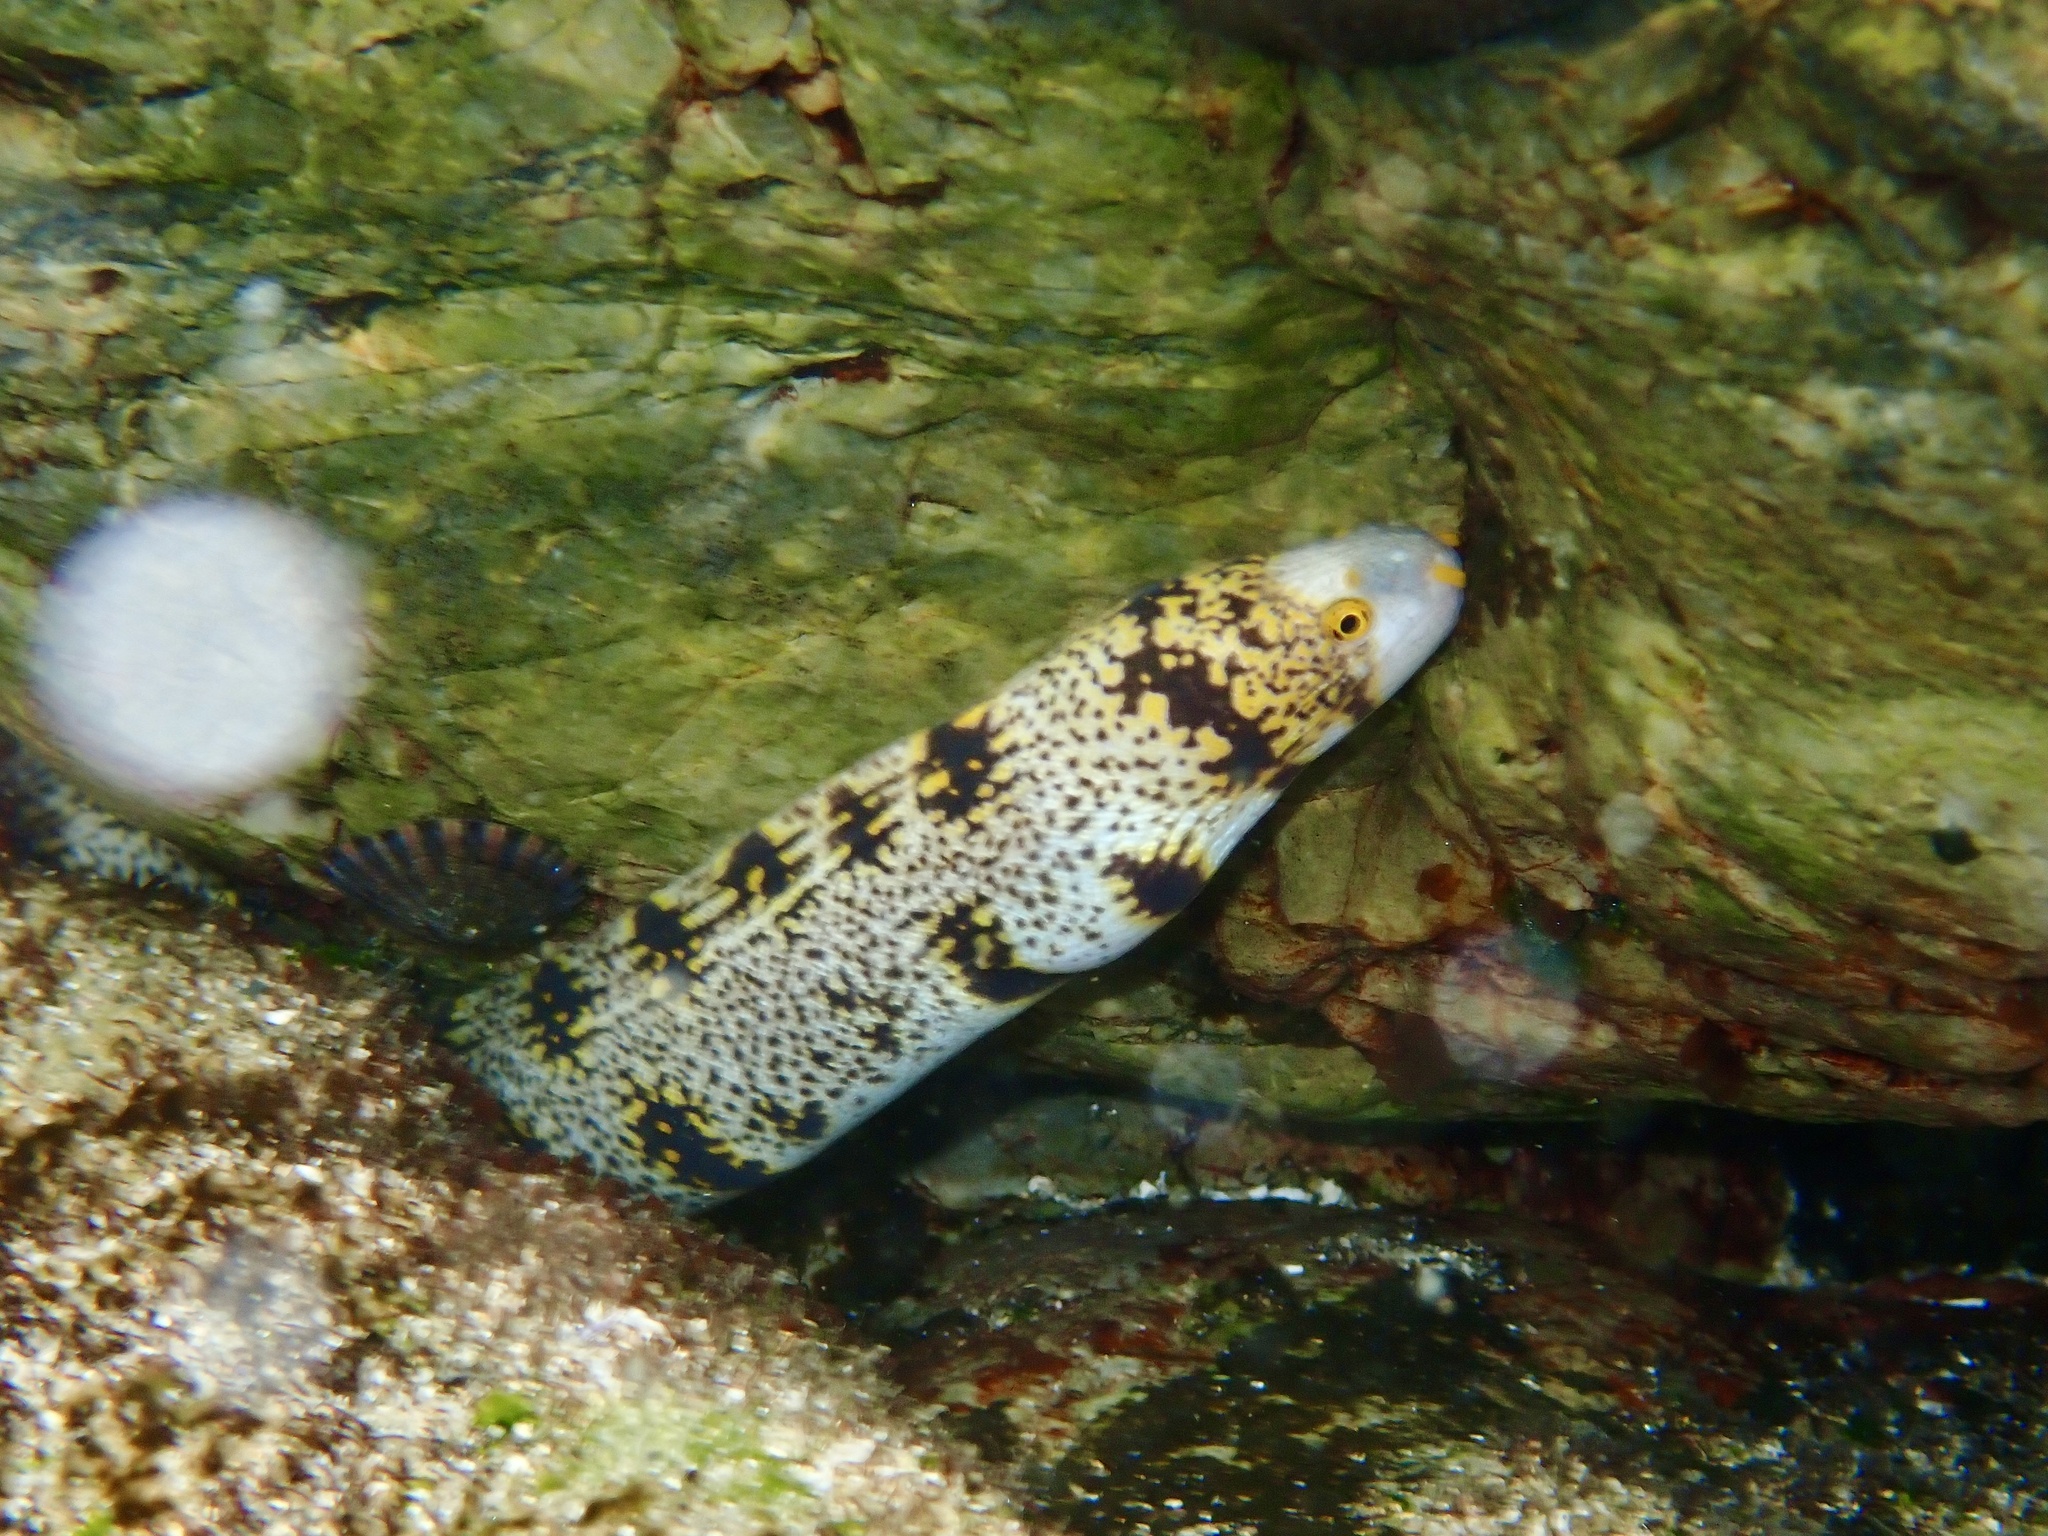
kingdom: Animalia
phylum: Chordata
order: Anguilliformes
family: Muraenidae
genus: Echidna
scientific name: Echidna nebulosa
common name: Snowflake moray
